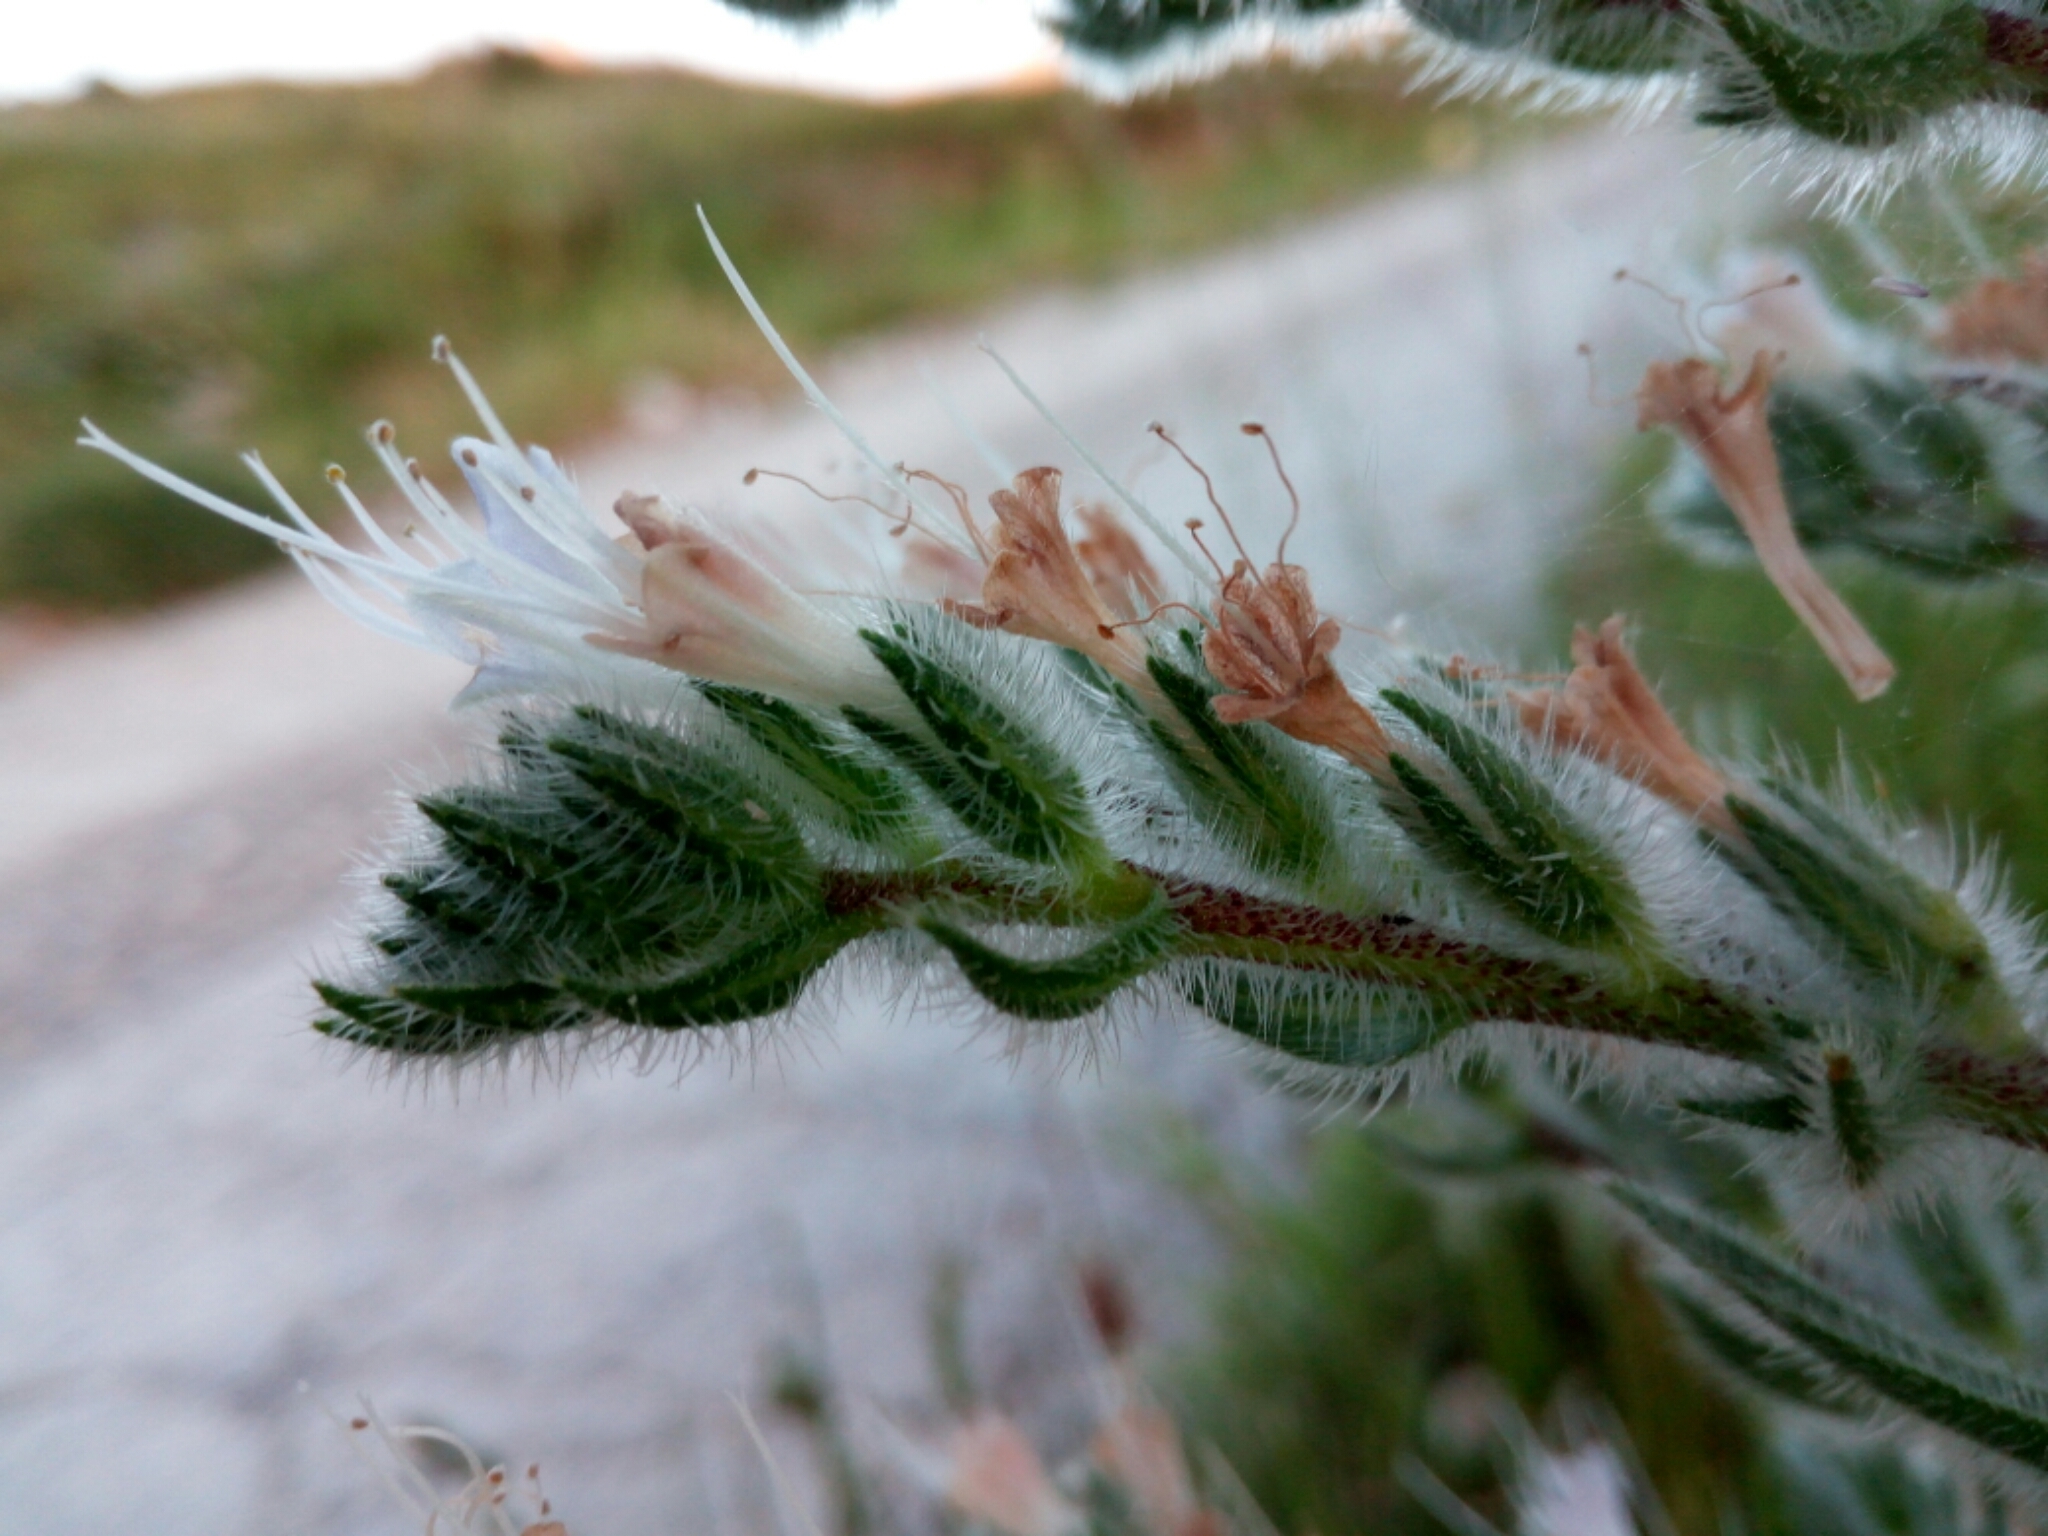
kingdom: Plantae
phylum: Tracheophyta
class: Magnoliopsida
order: Boraginales
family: Boraginaceae
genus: Echium
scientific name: Echium italicum
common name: Italian viper's bugloss
